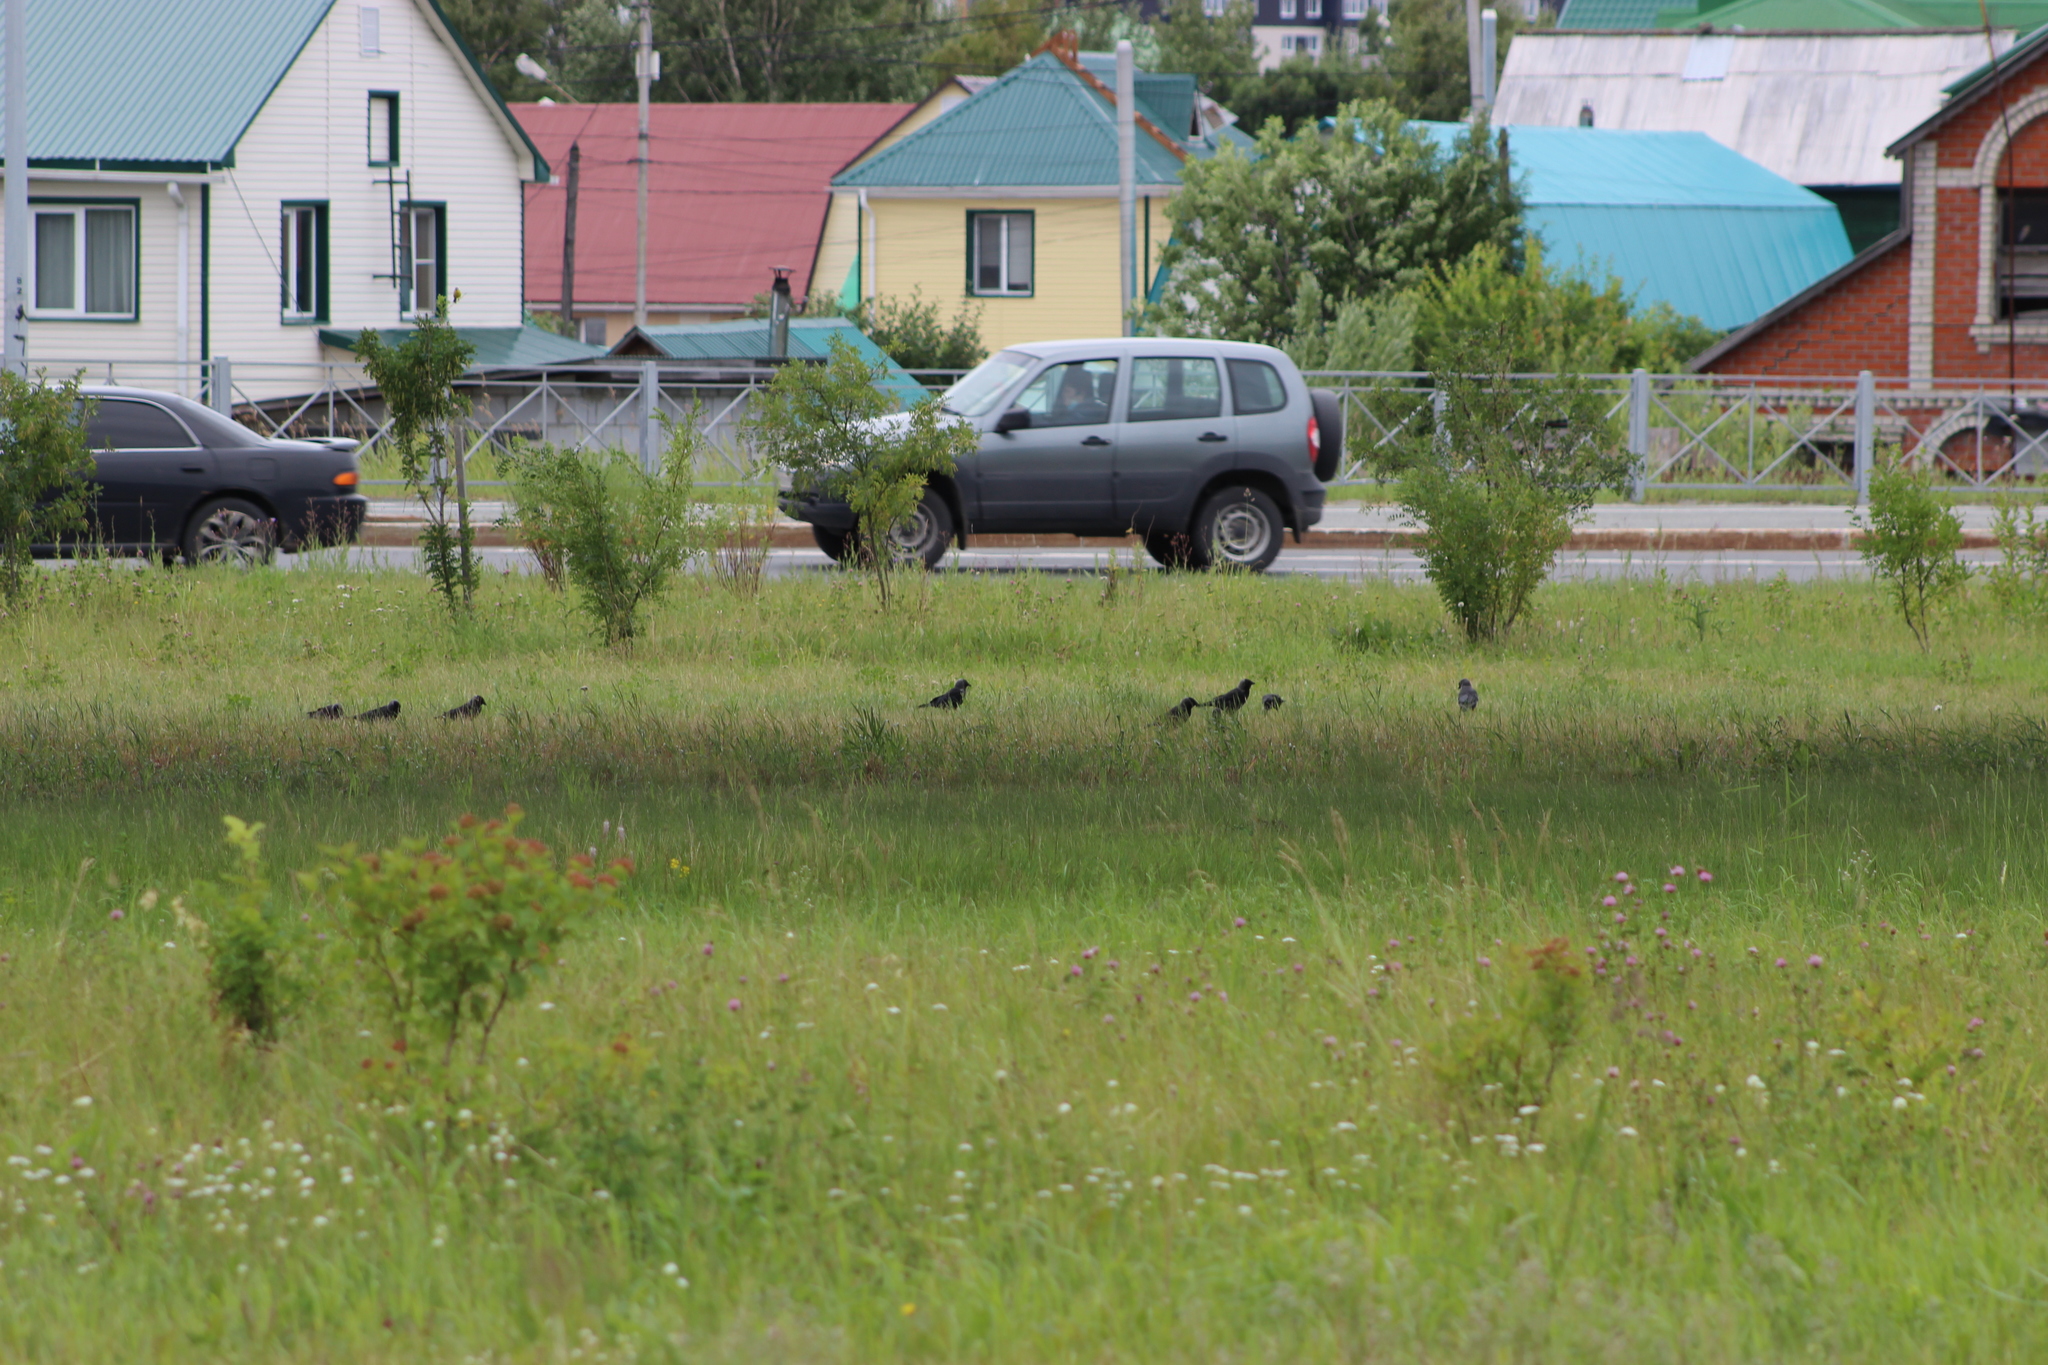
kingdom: Animalia
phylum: Chordata
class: Aves
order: Passeriformes
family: Corvidae
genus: Coloeus
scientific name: Coloeus monedula
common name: Western jackdaw
